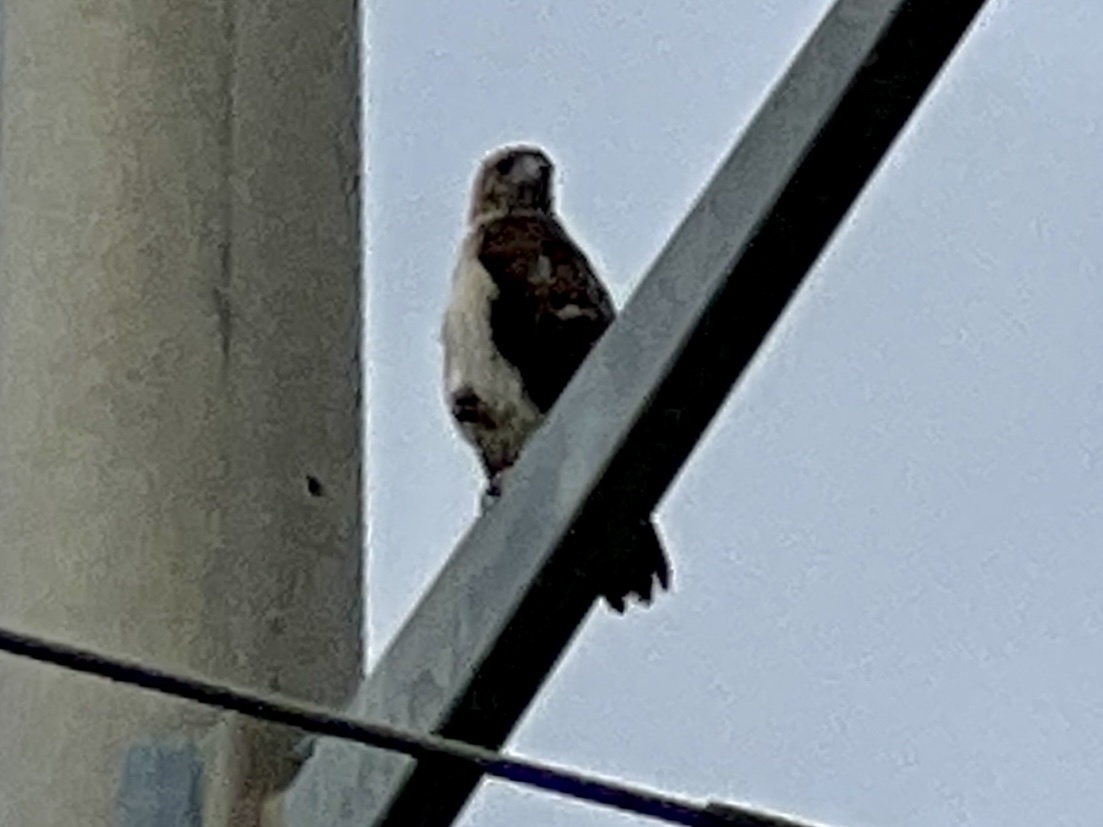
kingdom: Animalia
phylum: Chordata
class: Aves
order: Accipitriformes
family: Accipitridae
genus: Buteo
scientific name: Buteo jamaicensis
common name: Red-tailed hawk
